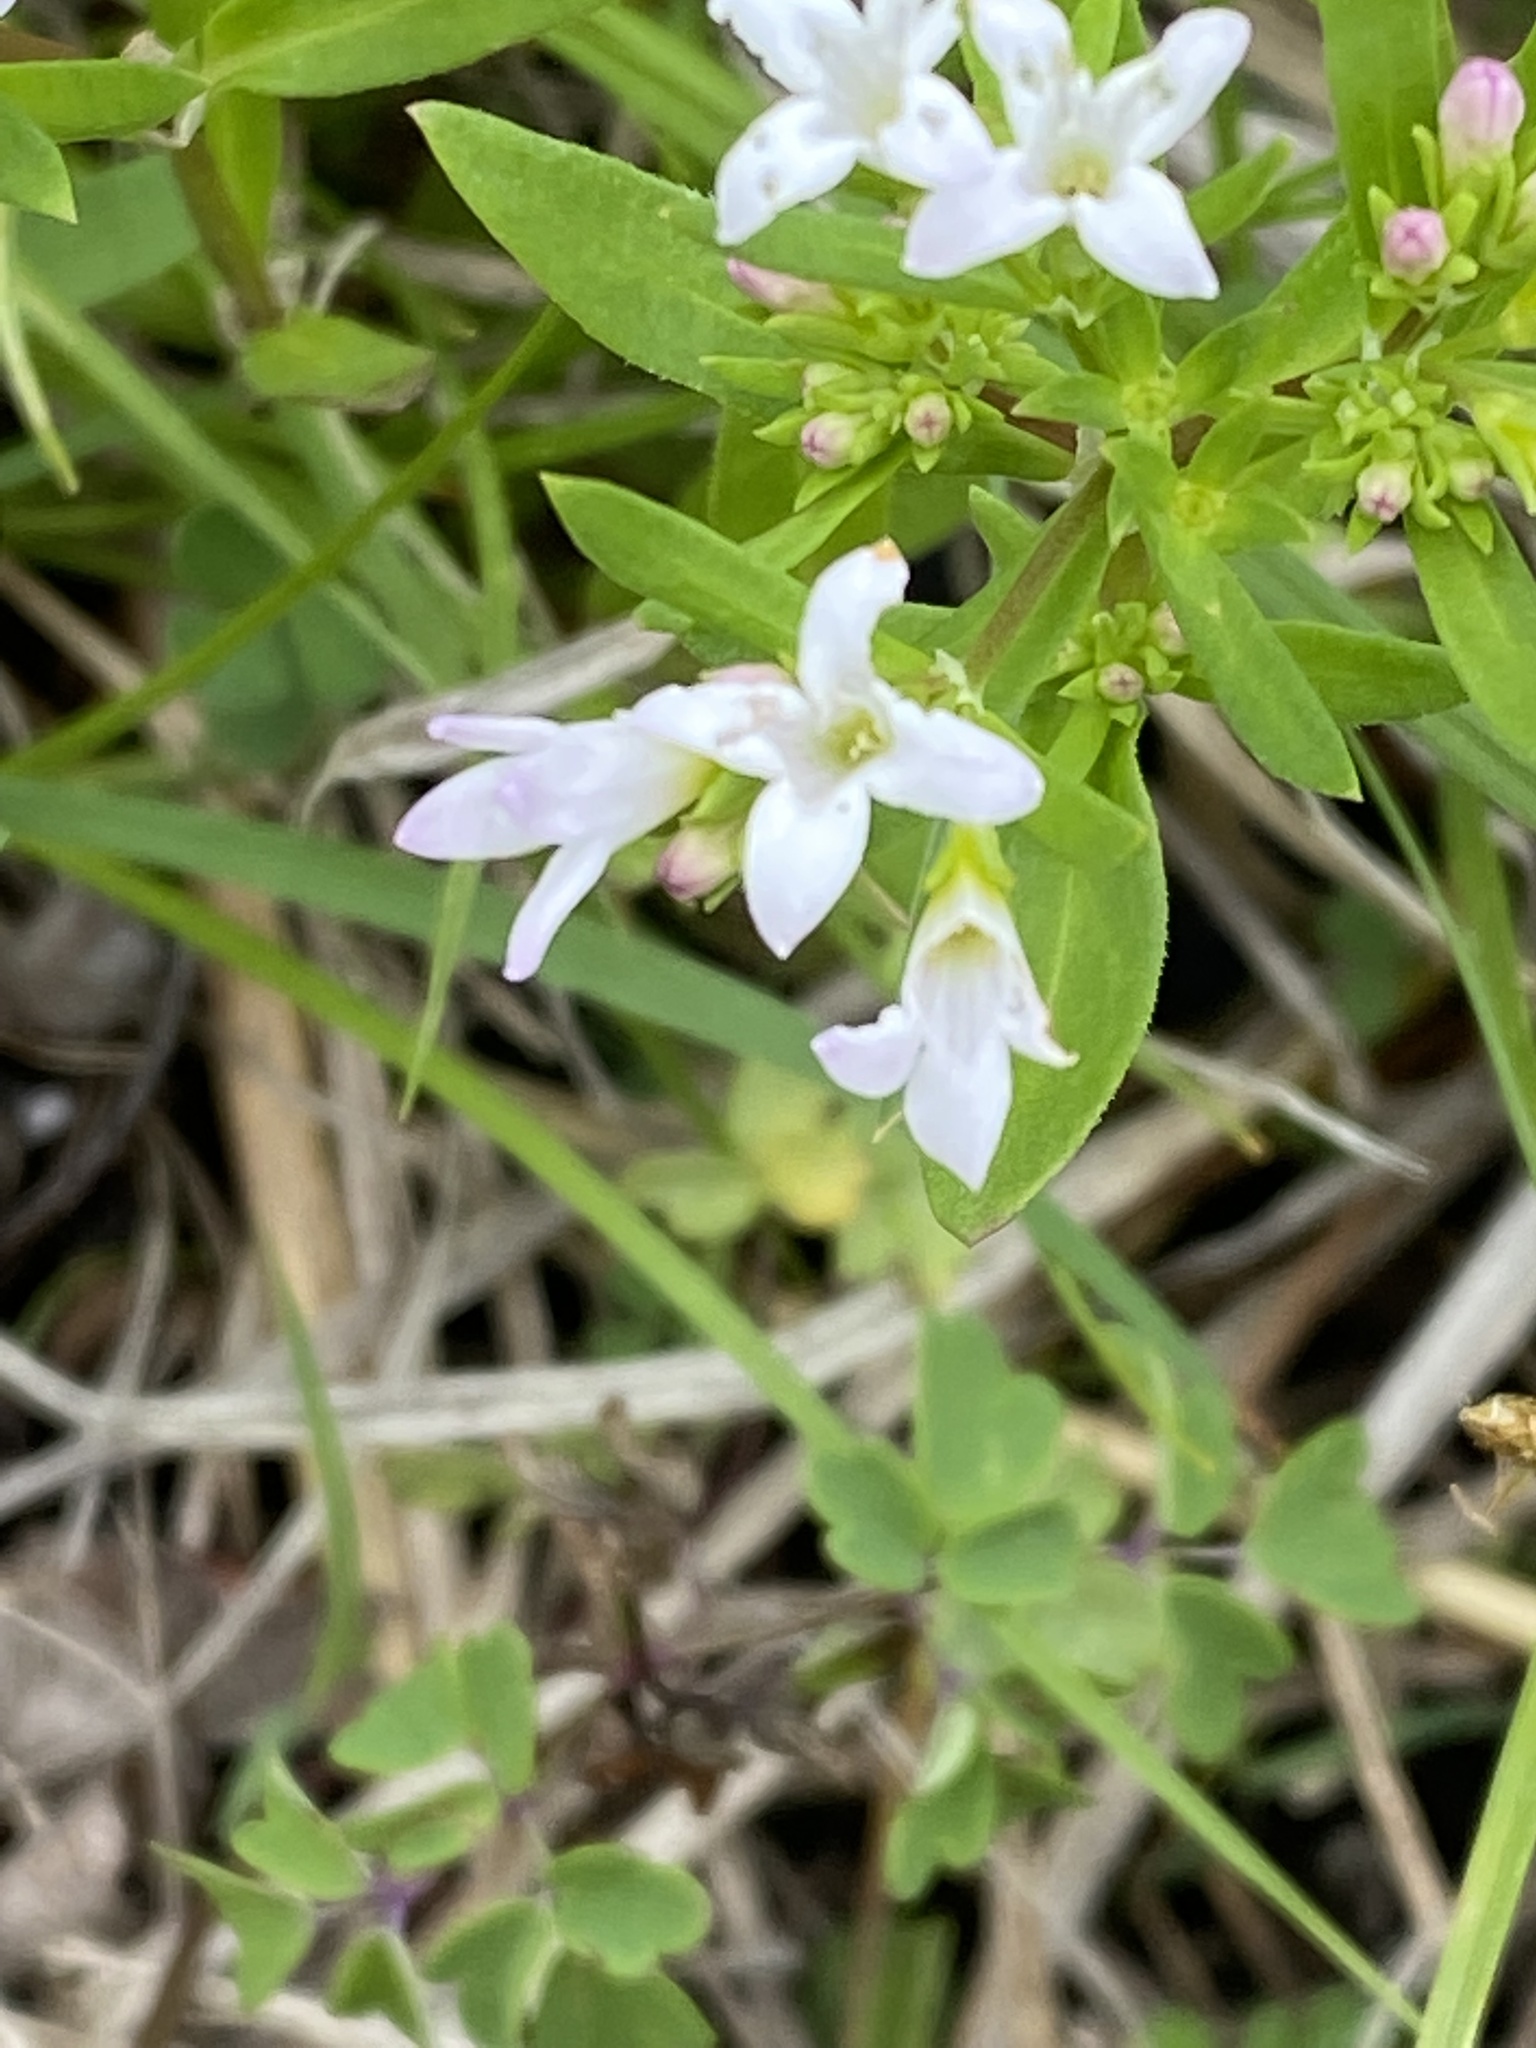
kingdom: Plantae
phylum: Tracheophyta
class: Magnoliopsida
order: Gentianales
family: Rubiaceae
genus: Houstonia
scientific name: Houstonia longifolia
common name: Long-leaved bluets
